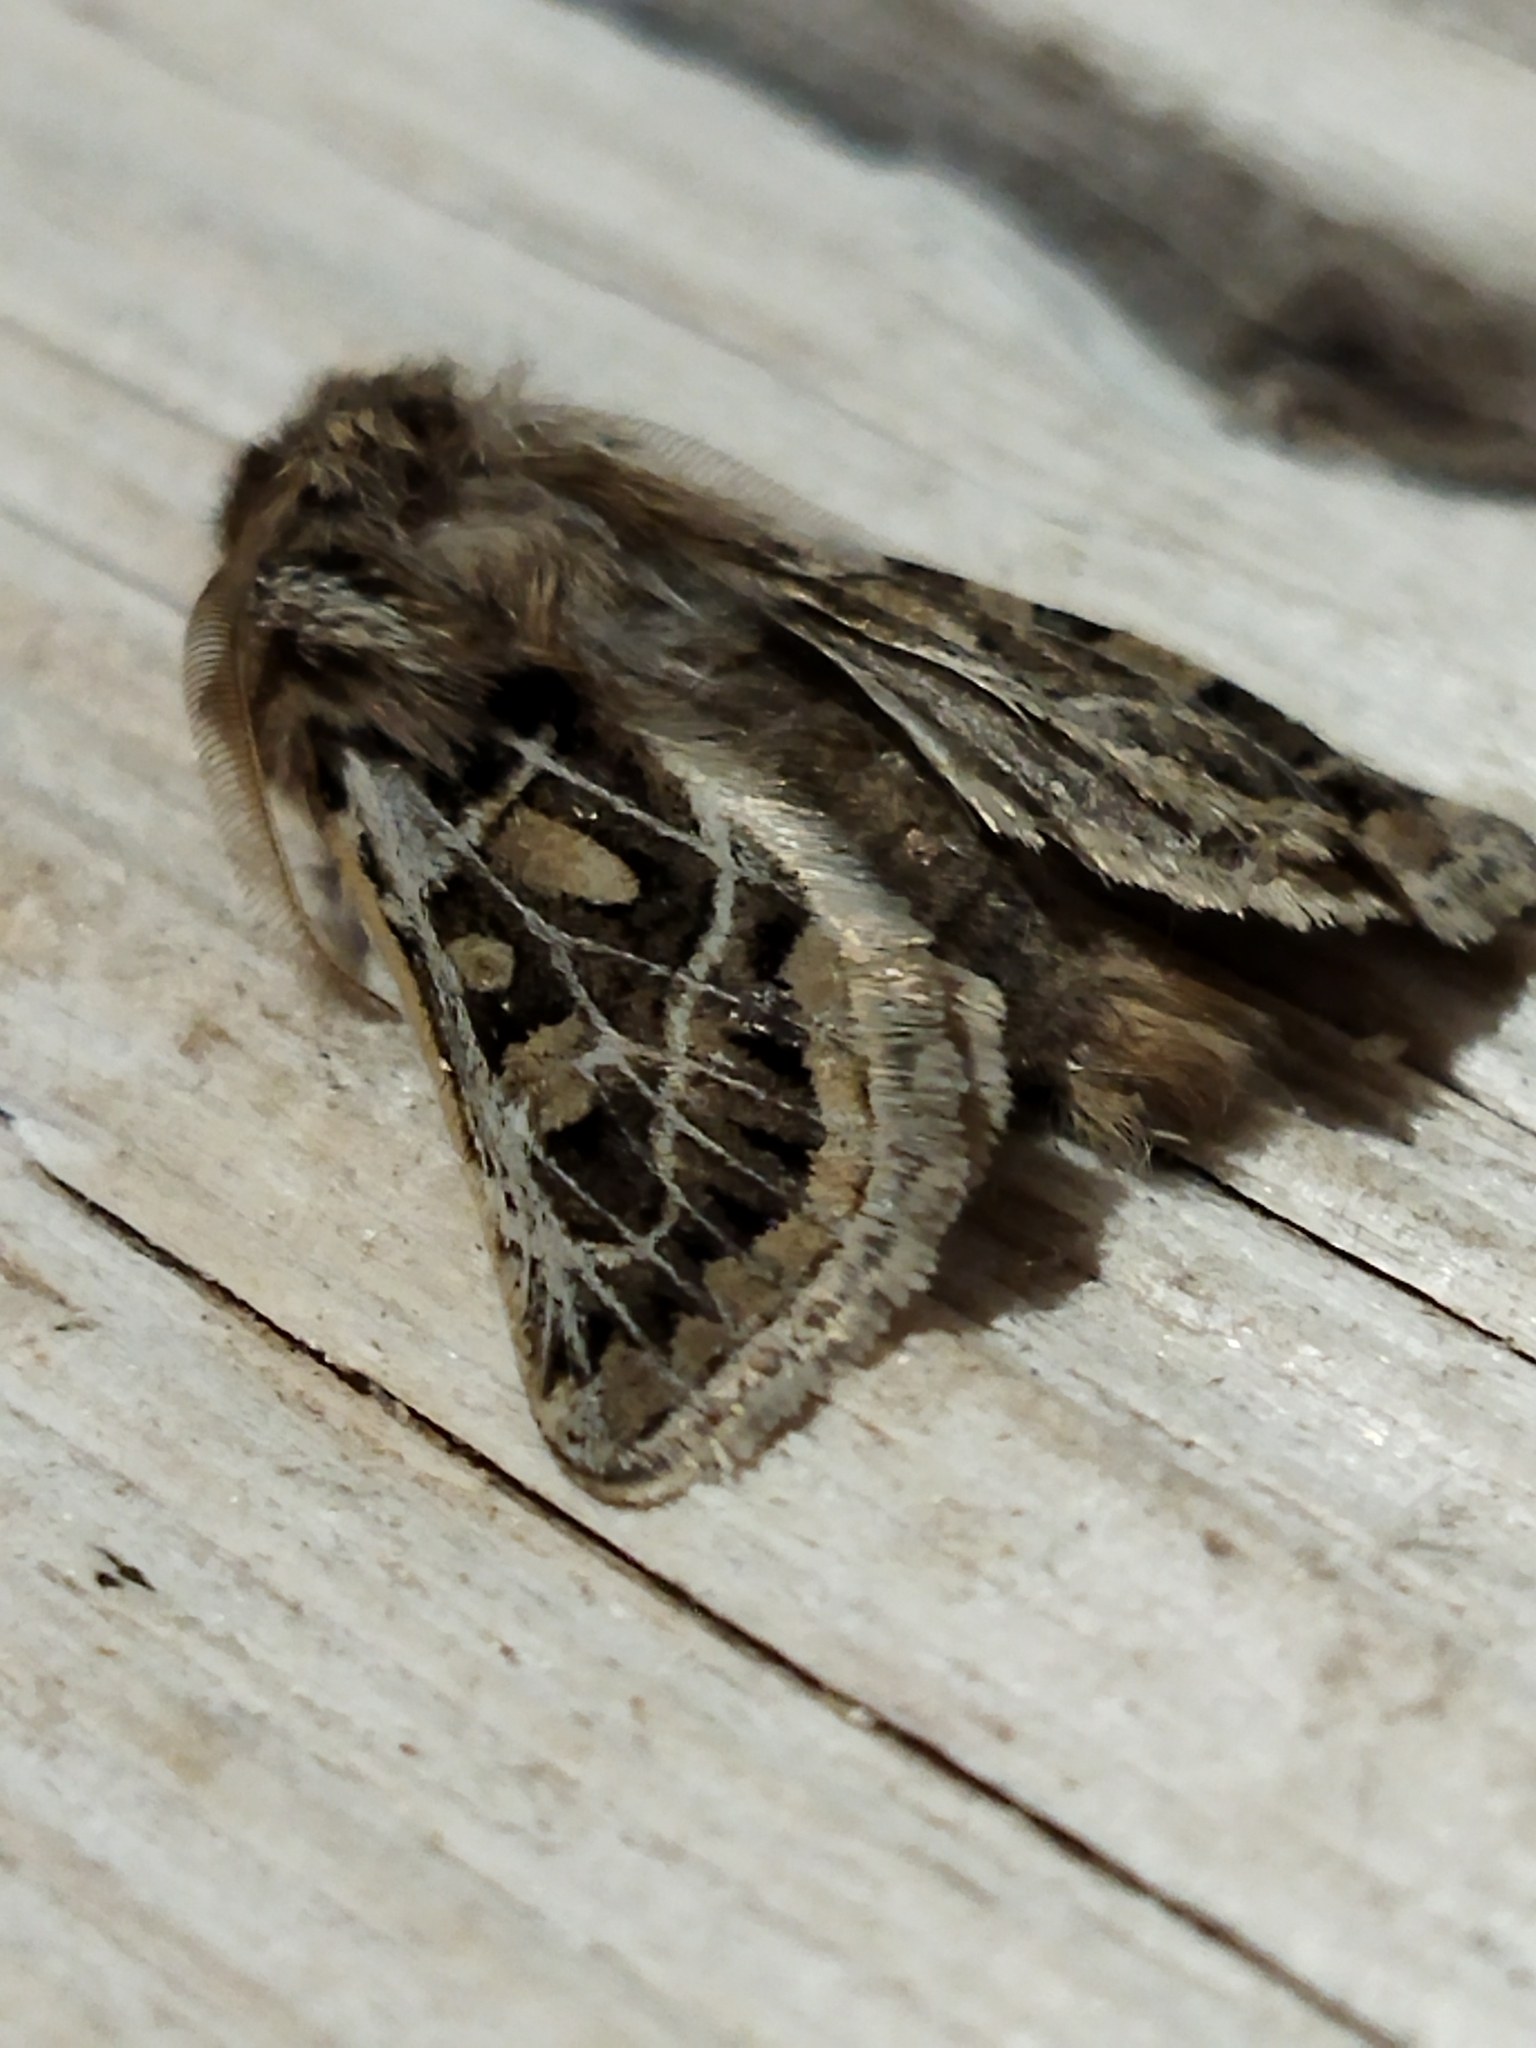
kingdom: Animalia
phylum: Arthropoda
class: Insecta
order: Lepidoptera
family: Noctuidae
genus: Ulochlaena
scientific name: Ulochlaena hirta
